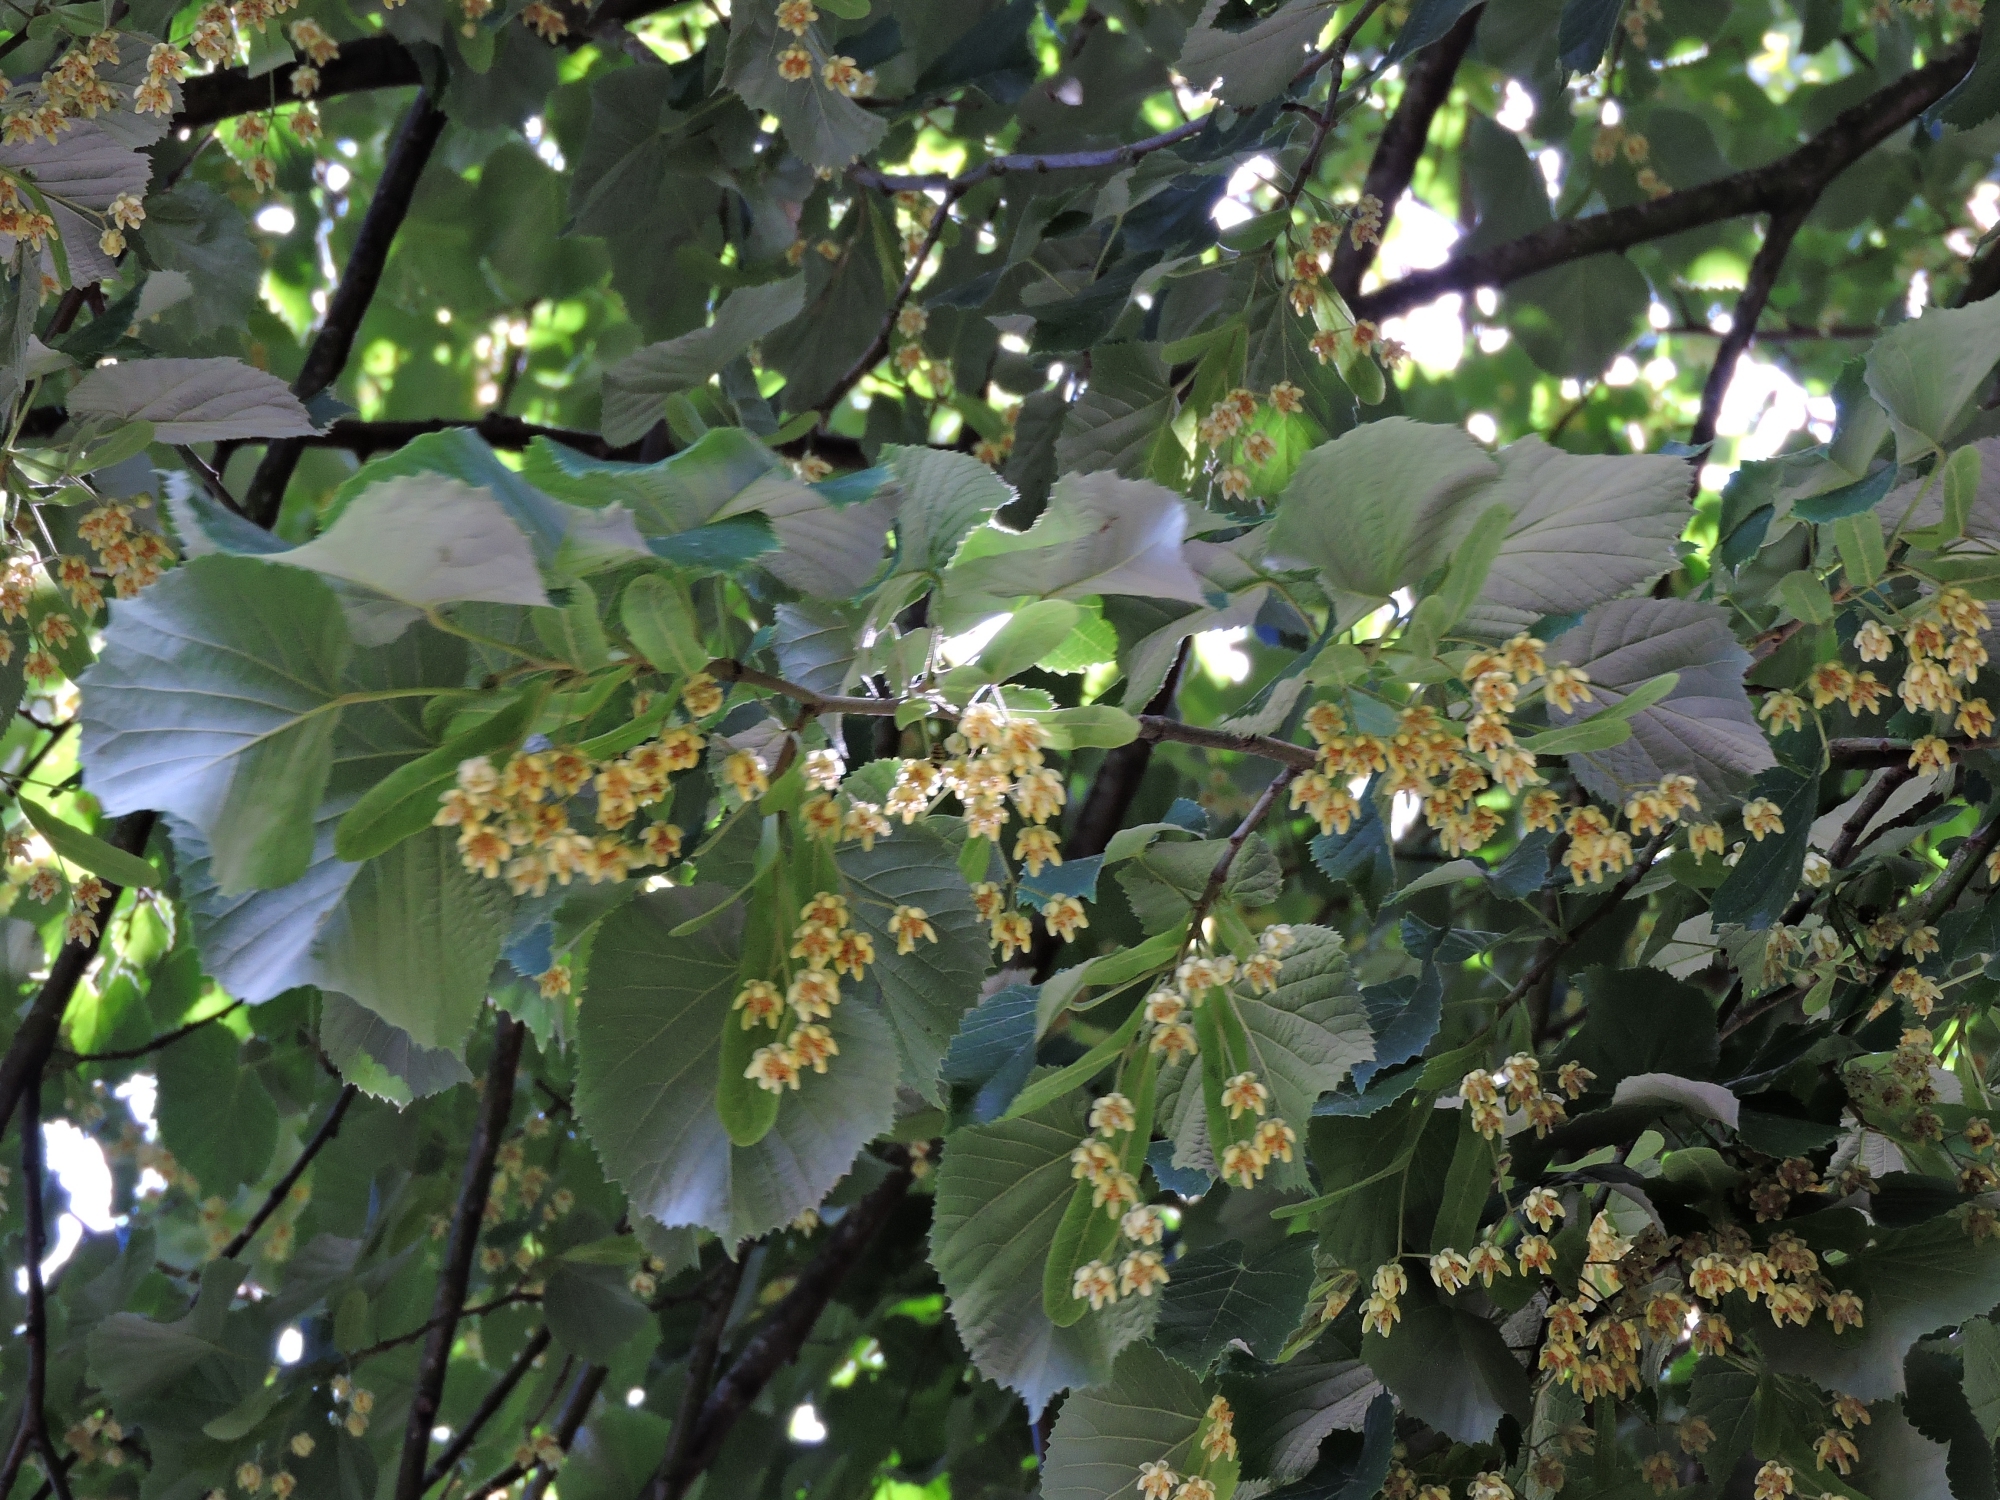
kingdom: Plantae
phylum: Tracheophyta
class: Magnoliopsida
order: Malvales
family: Malvaceae
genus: Tilia
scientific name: Tilia tomentosa
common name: Silver lime
